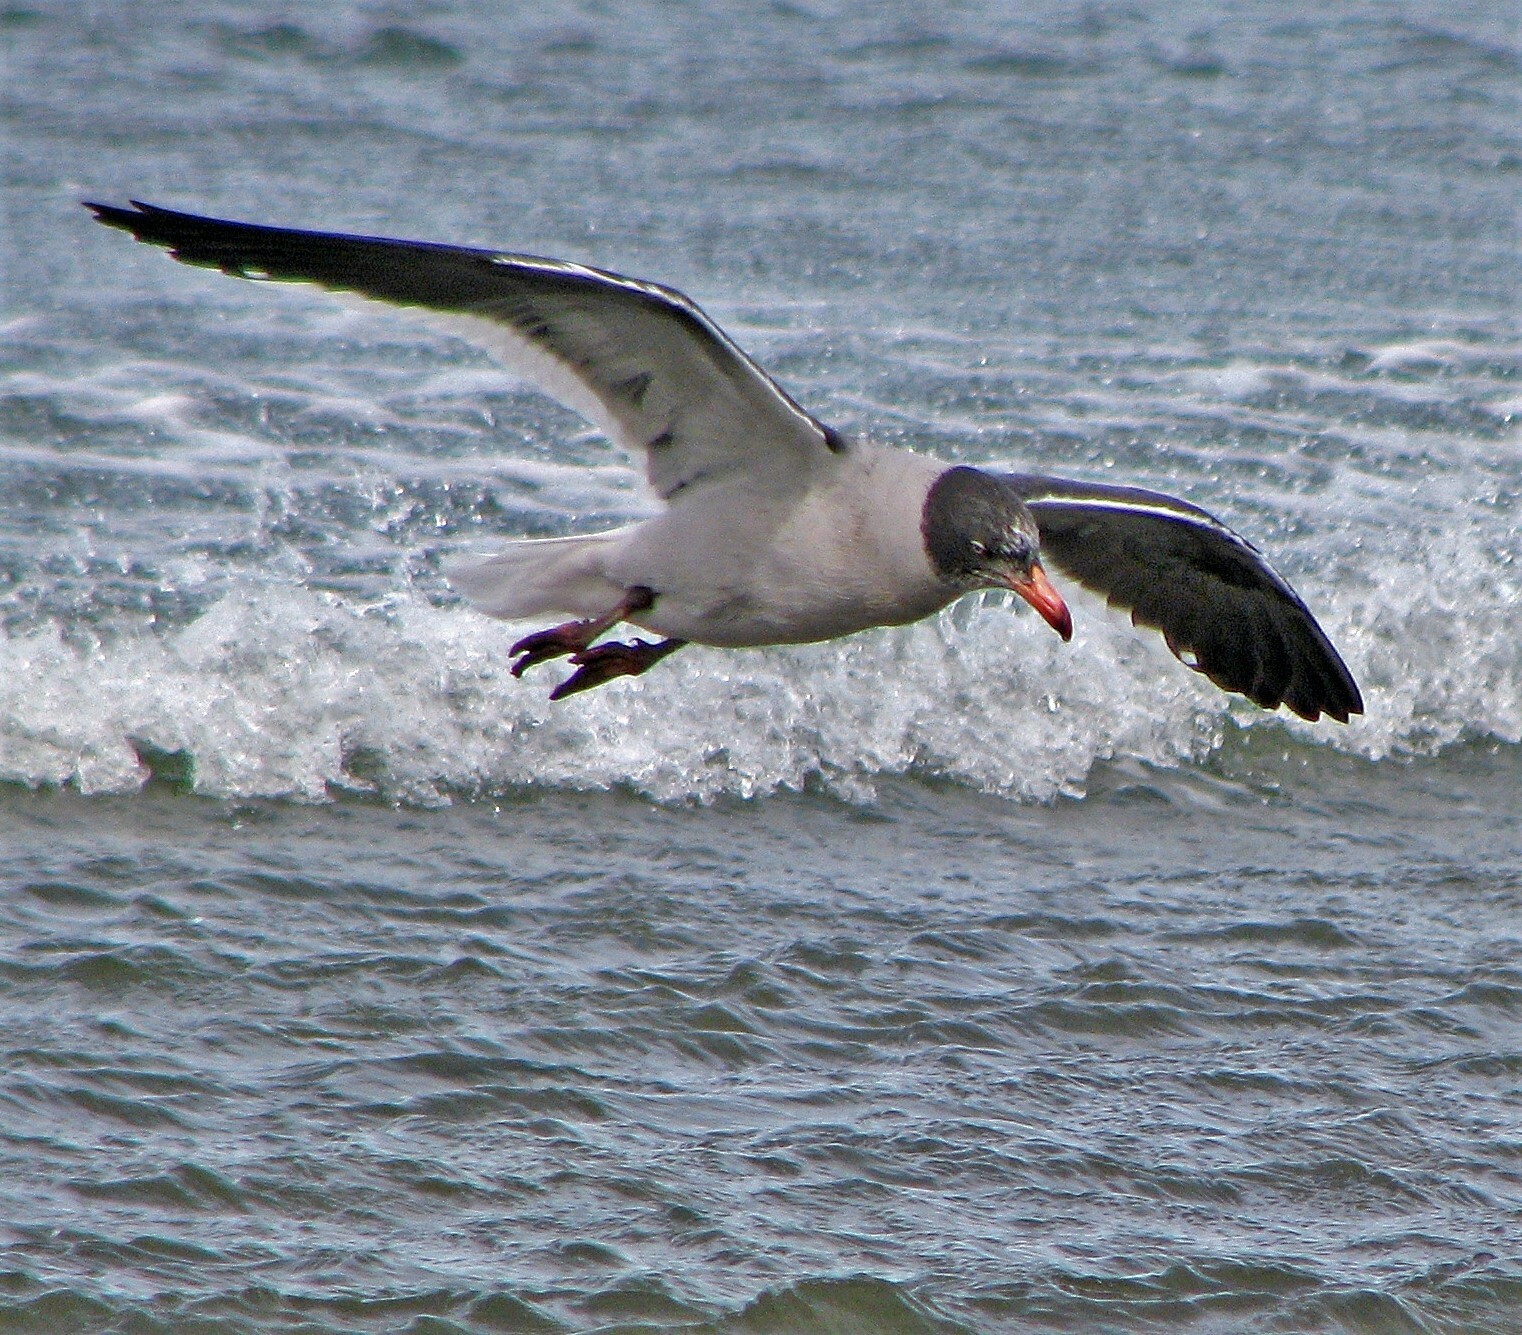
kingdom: Animalia
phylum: Chordata
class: Aves
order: Charadriiformes
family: Laridae
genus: Leucophaeus
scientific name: Leucophaeus scoresbii
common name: Dolphin gull
